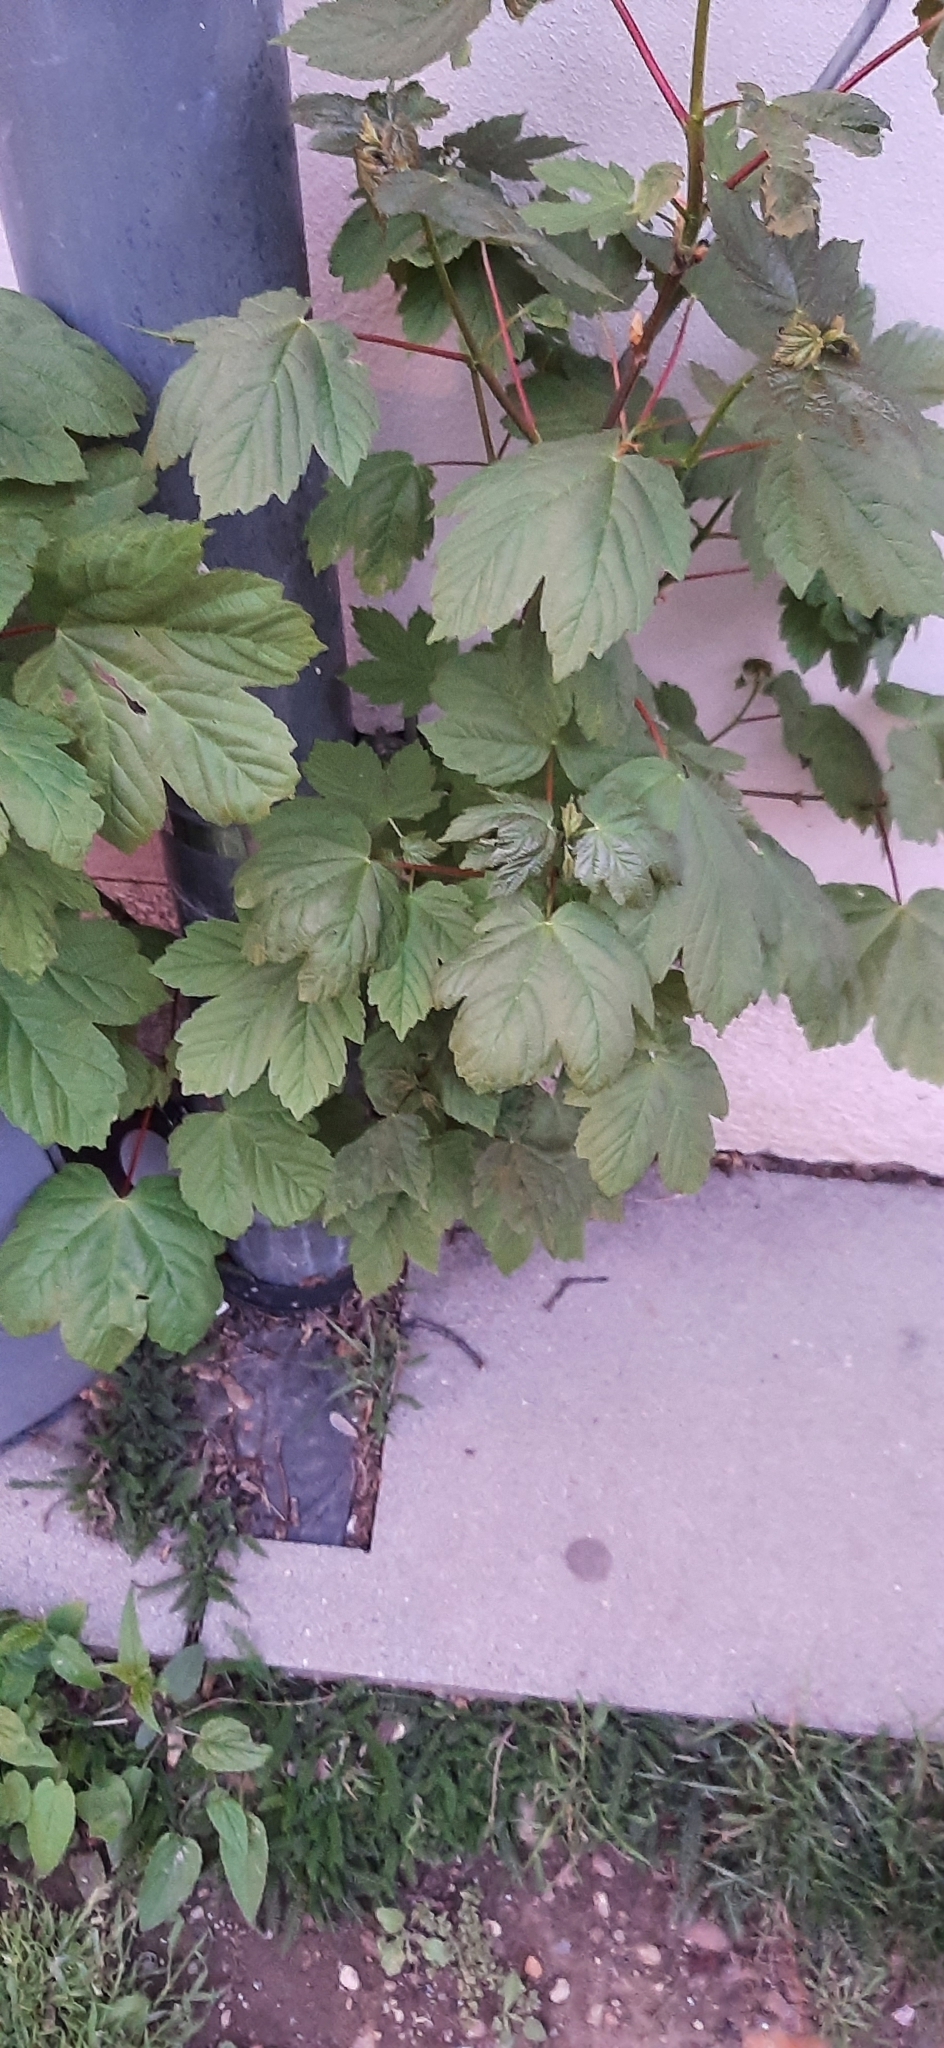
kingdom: Plantae
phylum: Tracheophyta
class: Magnoliopsida
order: Sapindales
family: Sapindaceae
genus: Acer
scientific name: Acer pseudoplatanus
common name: Sycamore
